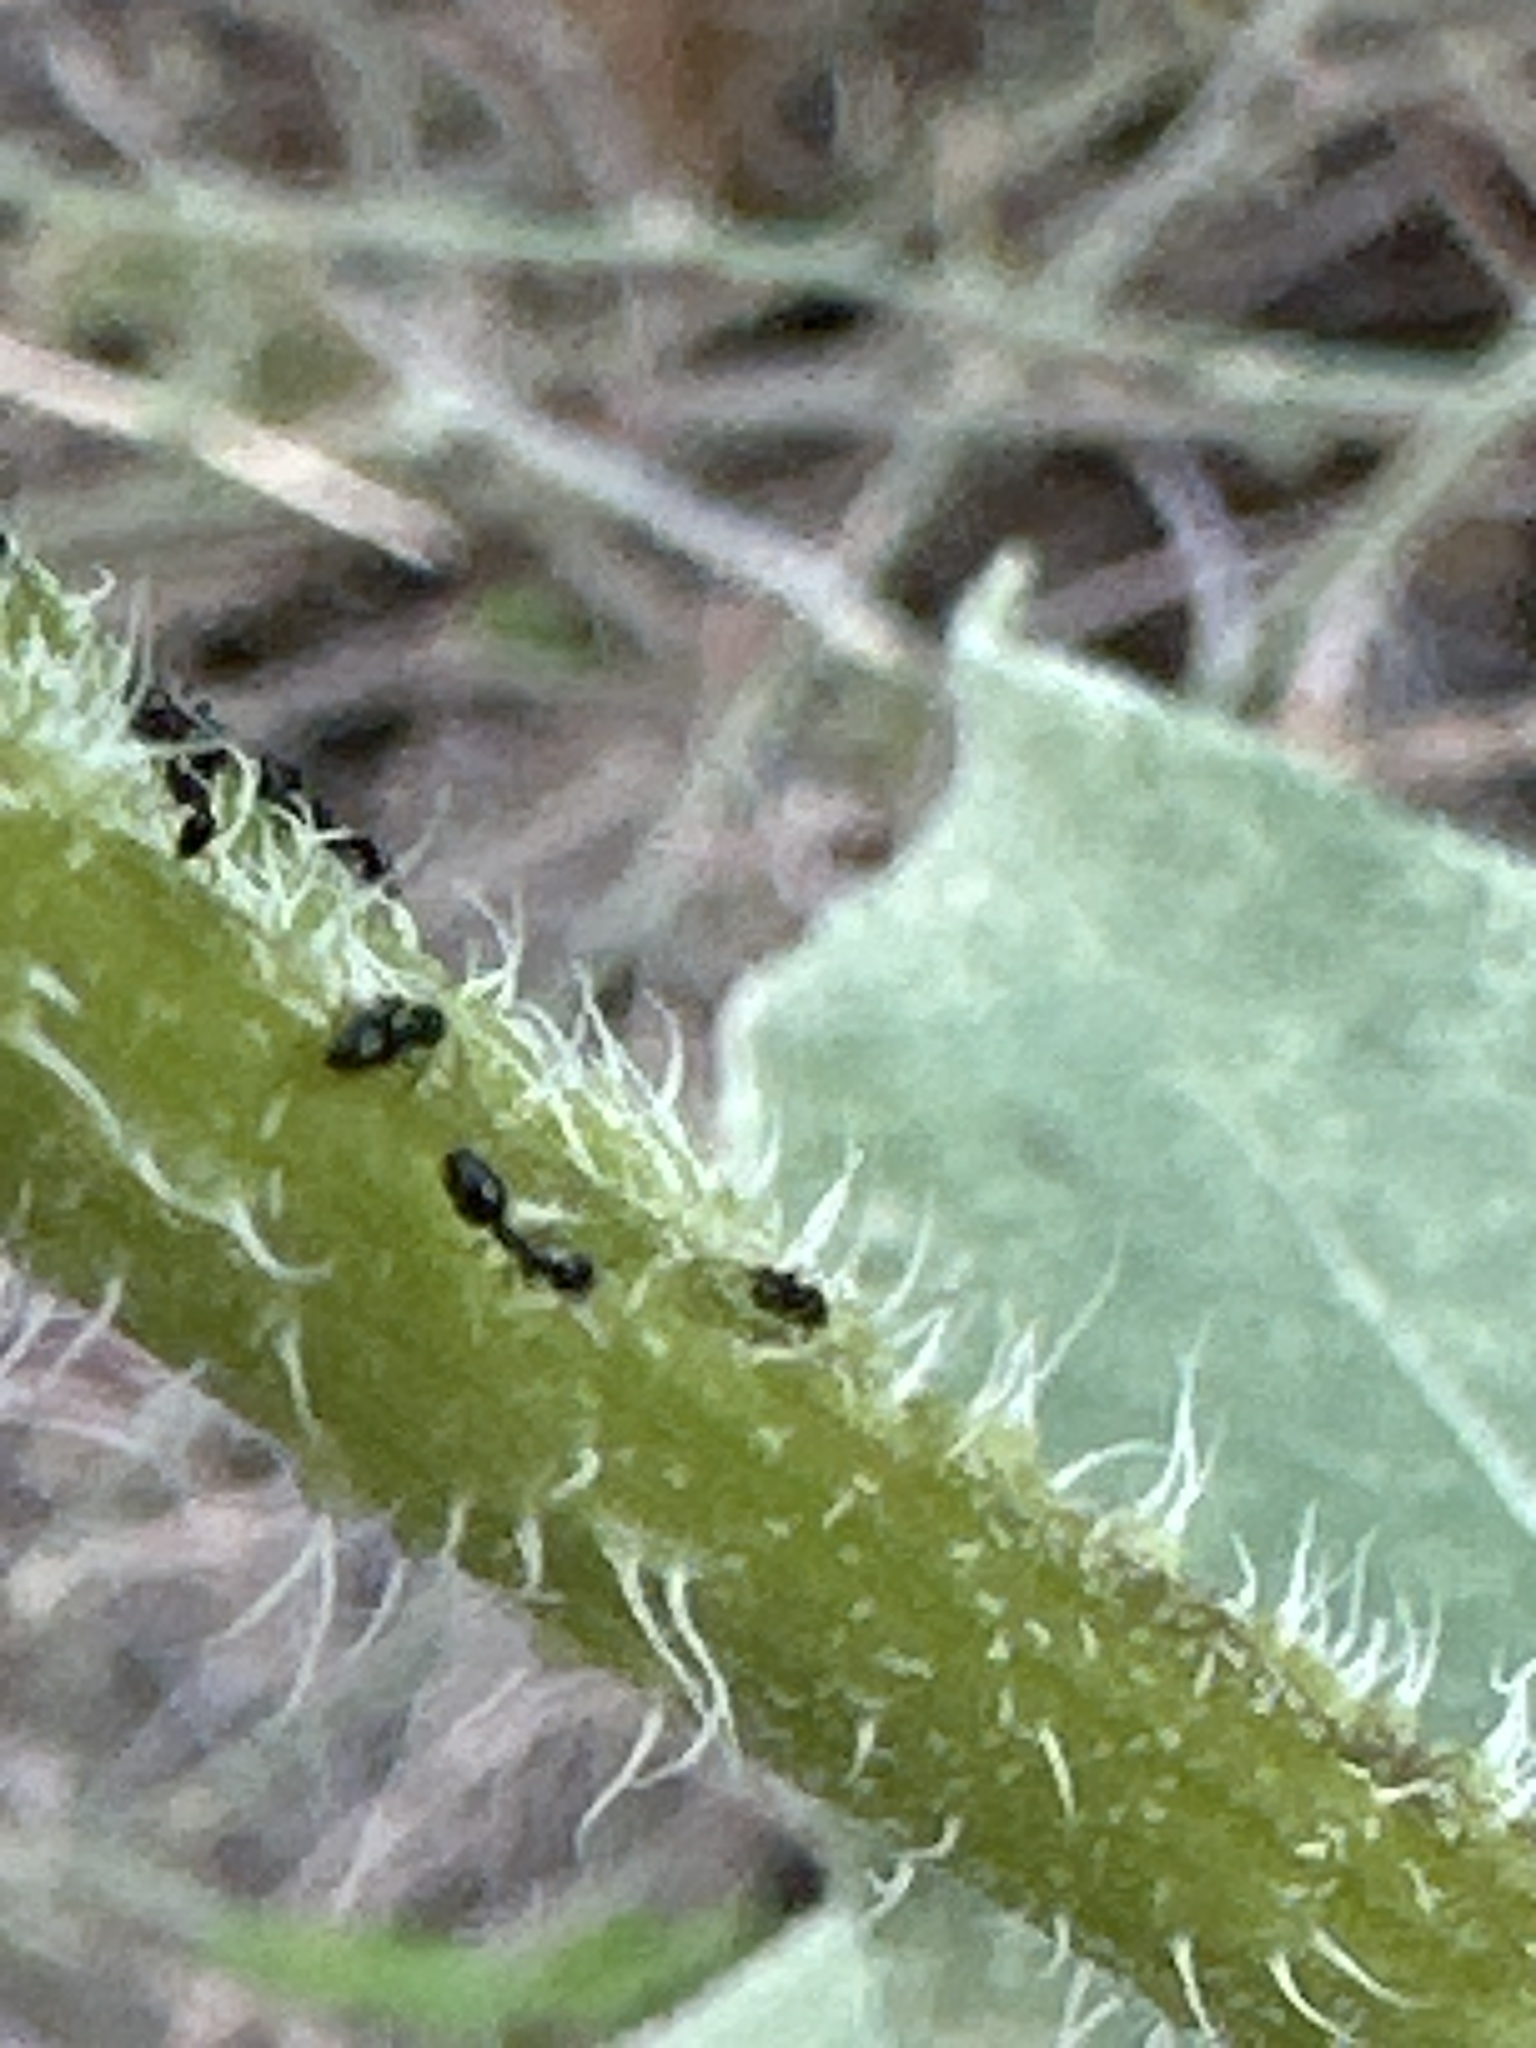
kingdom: Animalia
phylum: Arthropoda
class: Insecta
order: Hymenoptera
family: Formicidae
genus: Monomorium
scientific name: Monomorium minimum
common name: Little black ant
